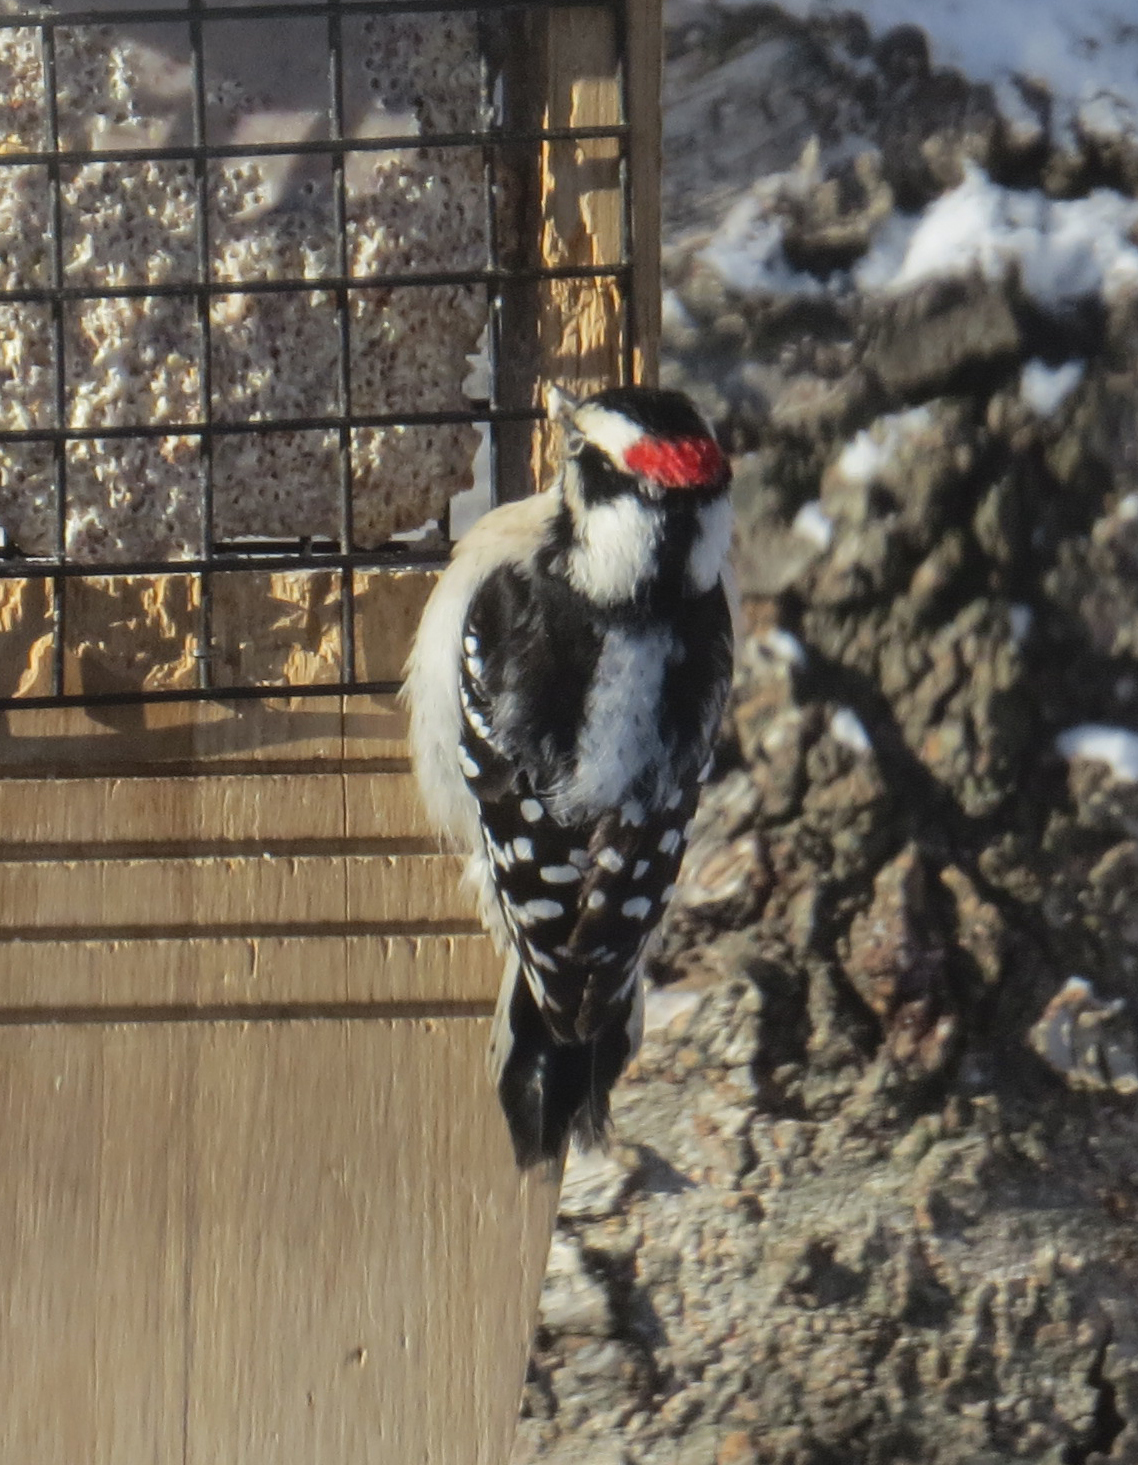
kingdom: Animalia
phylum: Chordata
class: Aves
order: Piciformes
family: Picidae
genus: Dryobates
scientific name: Dryobates pubescens
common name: Downy woodpecker
